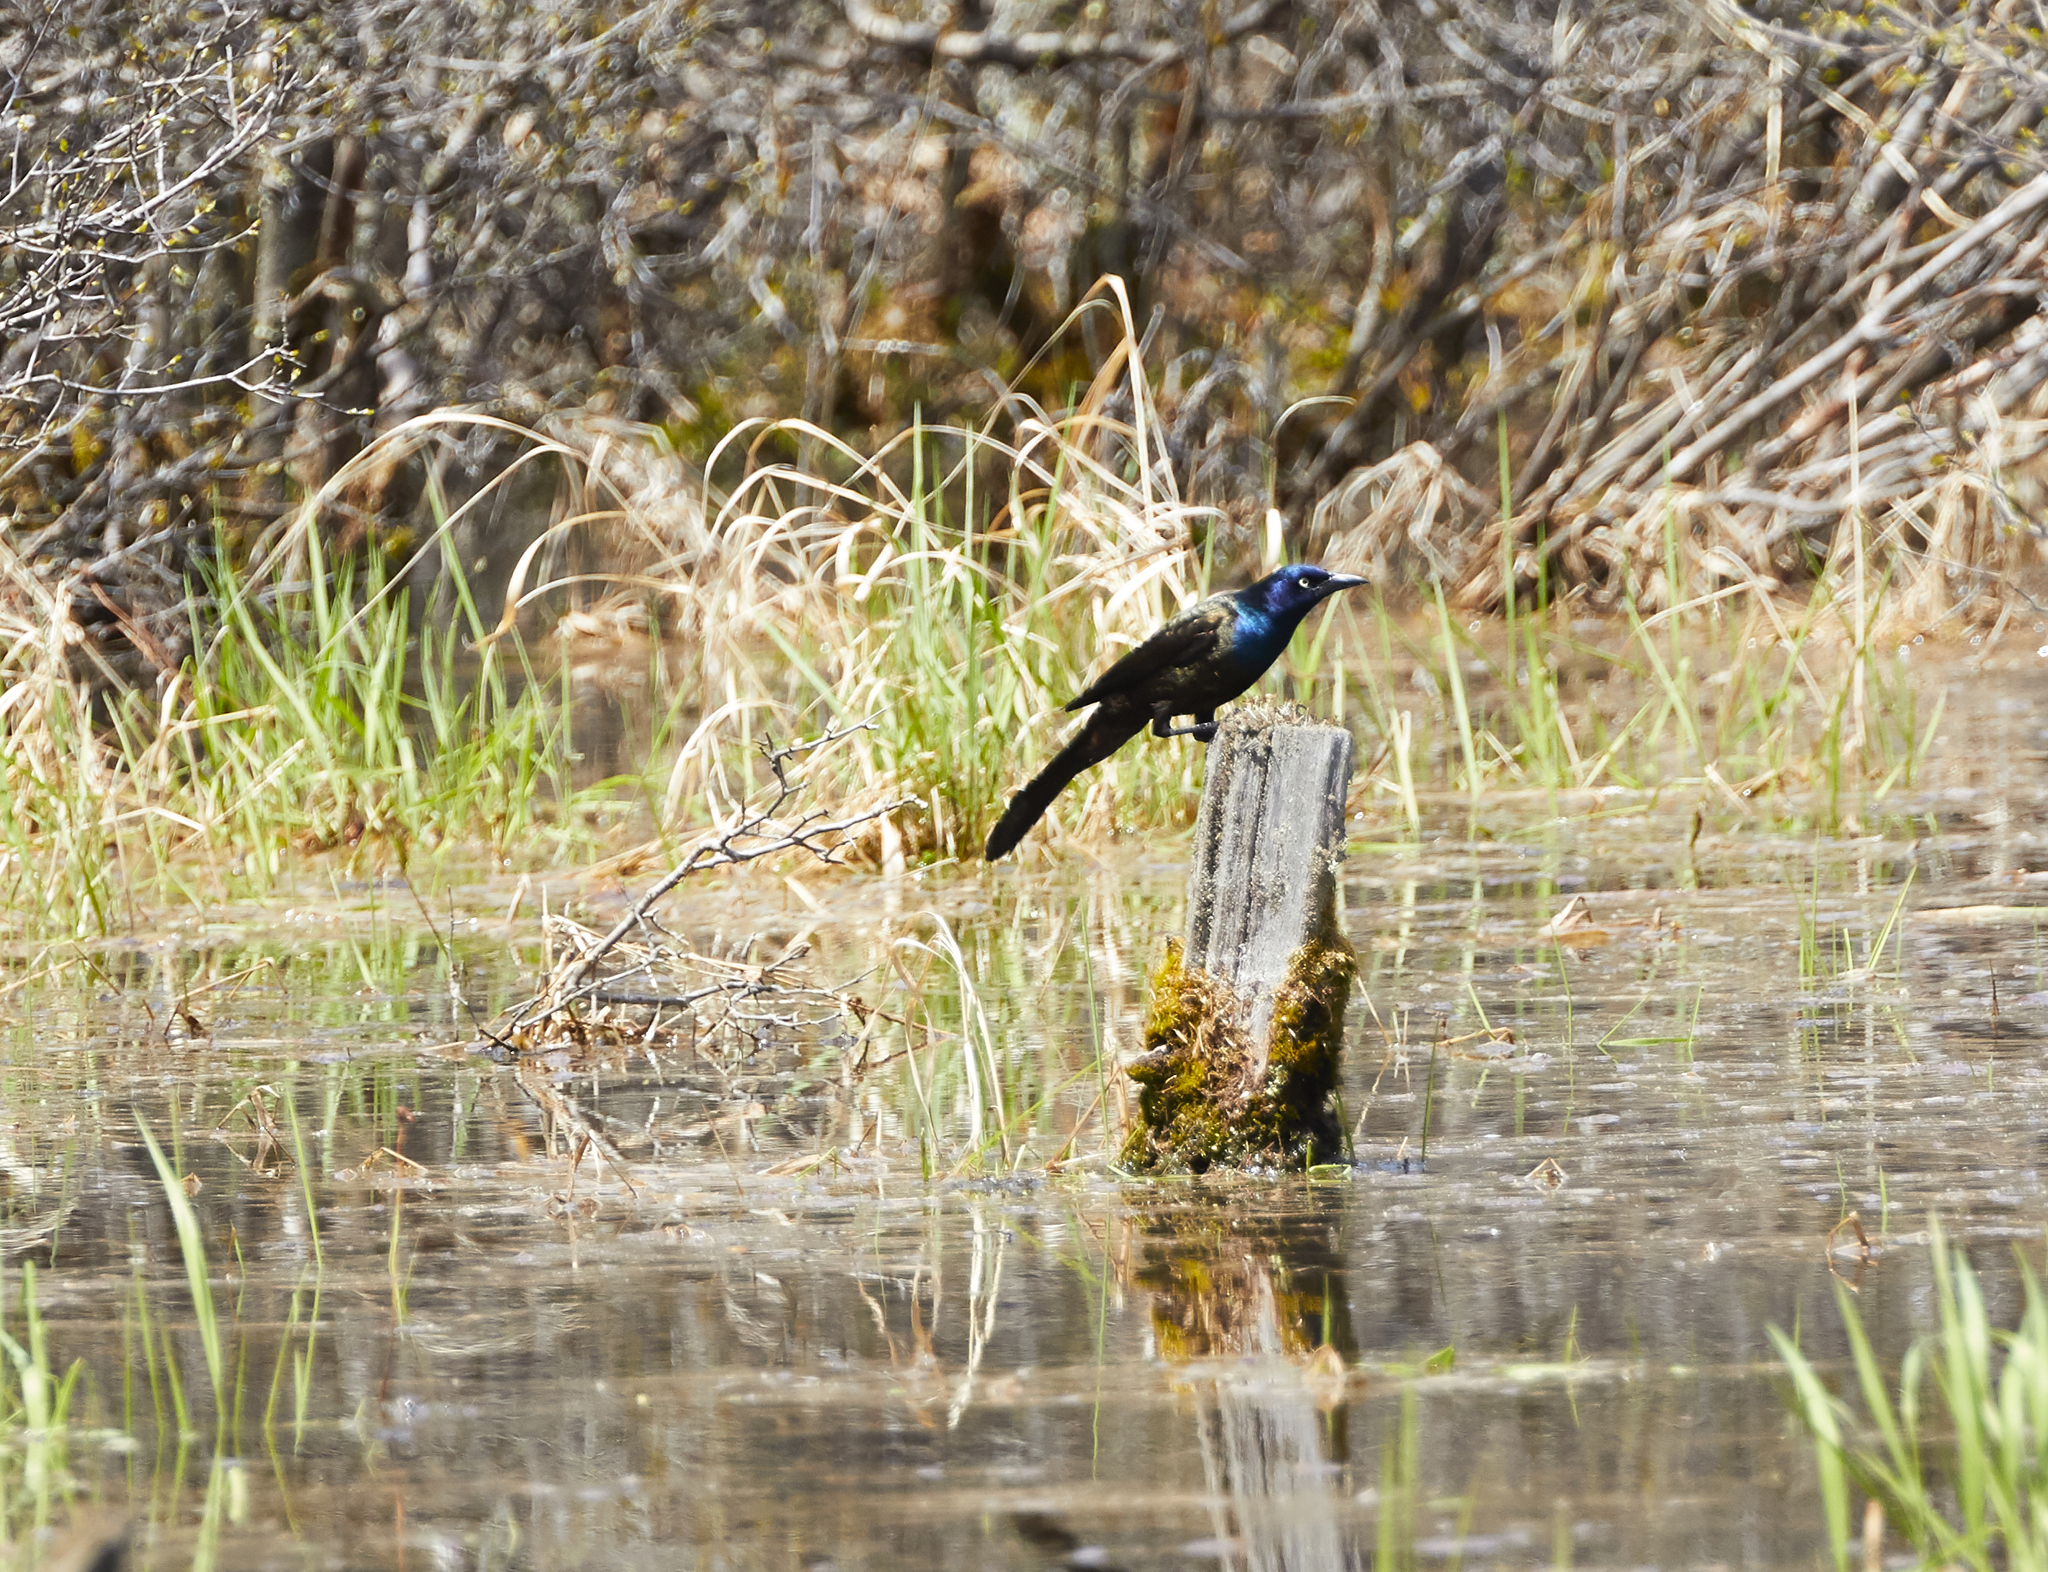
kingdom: Animalia
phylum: Chordata
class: Aves
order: Passeriformes
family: Icteridae
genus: Quiscalus
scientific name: Quiscalus quiscula
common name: Common grackle
